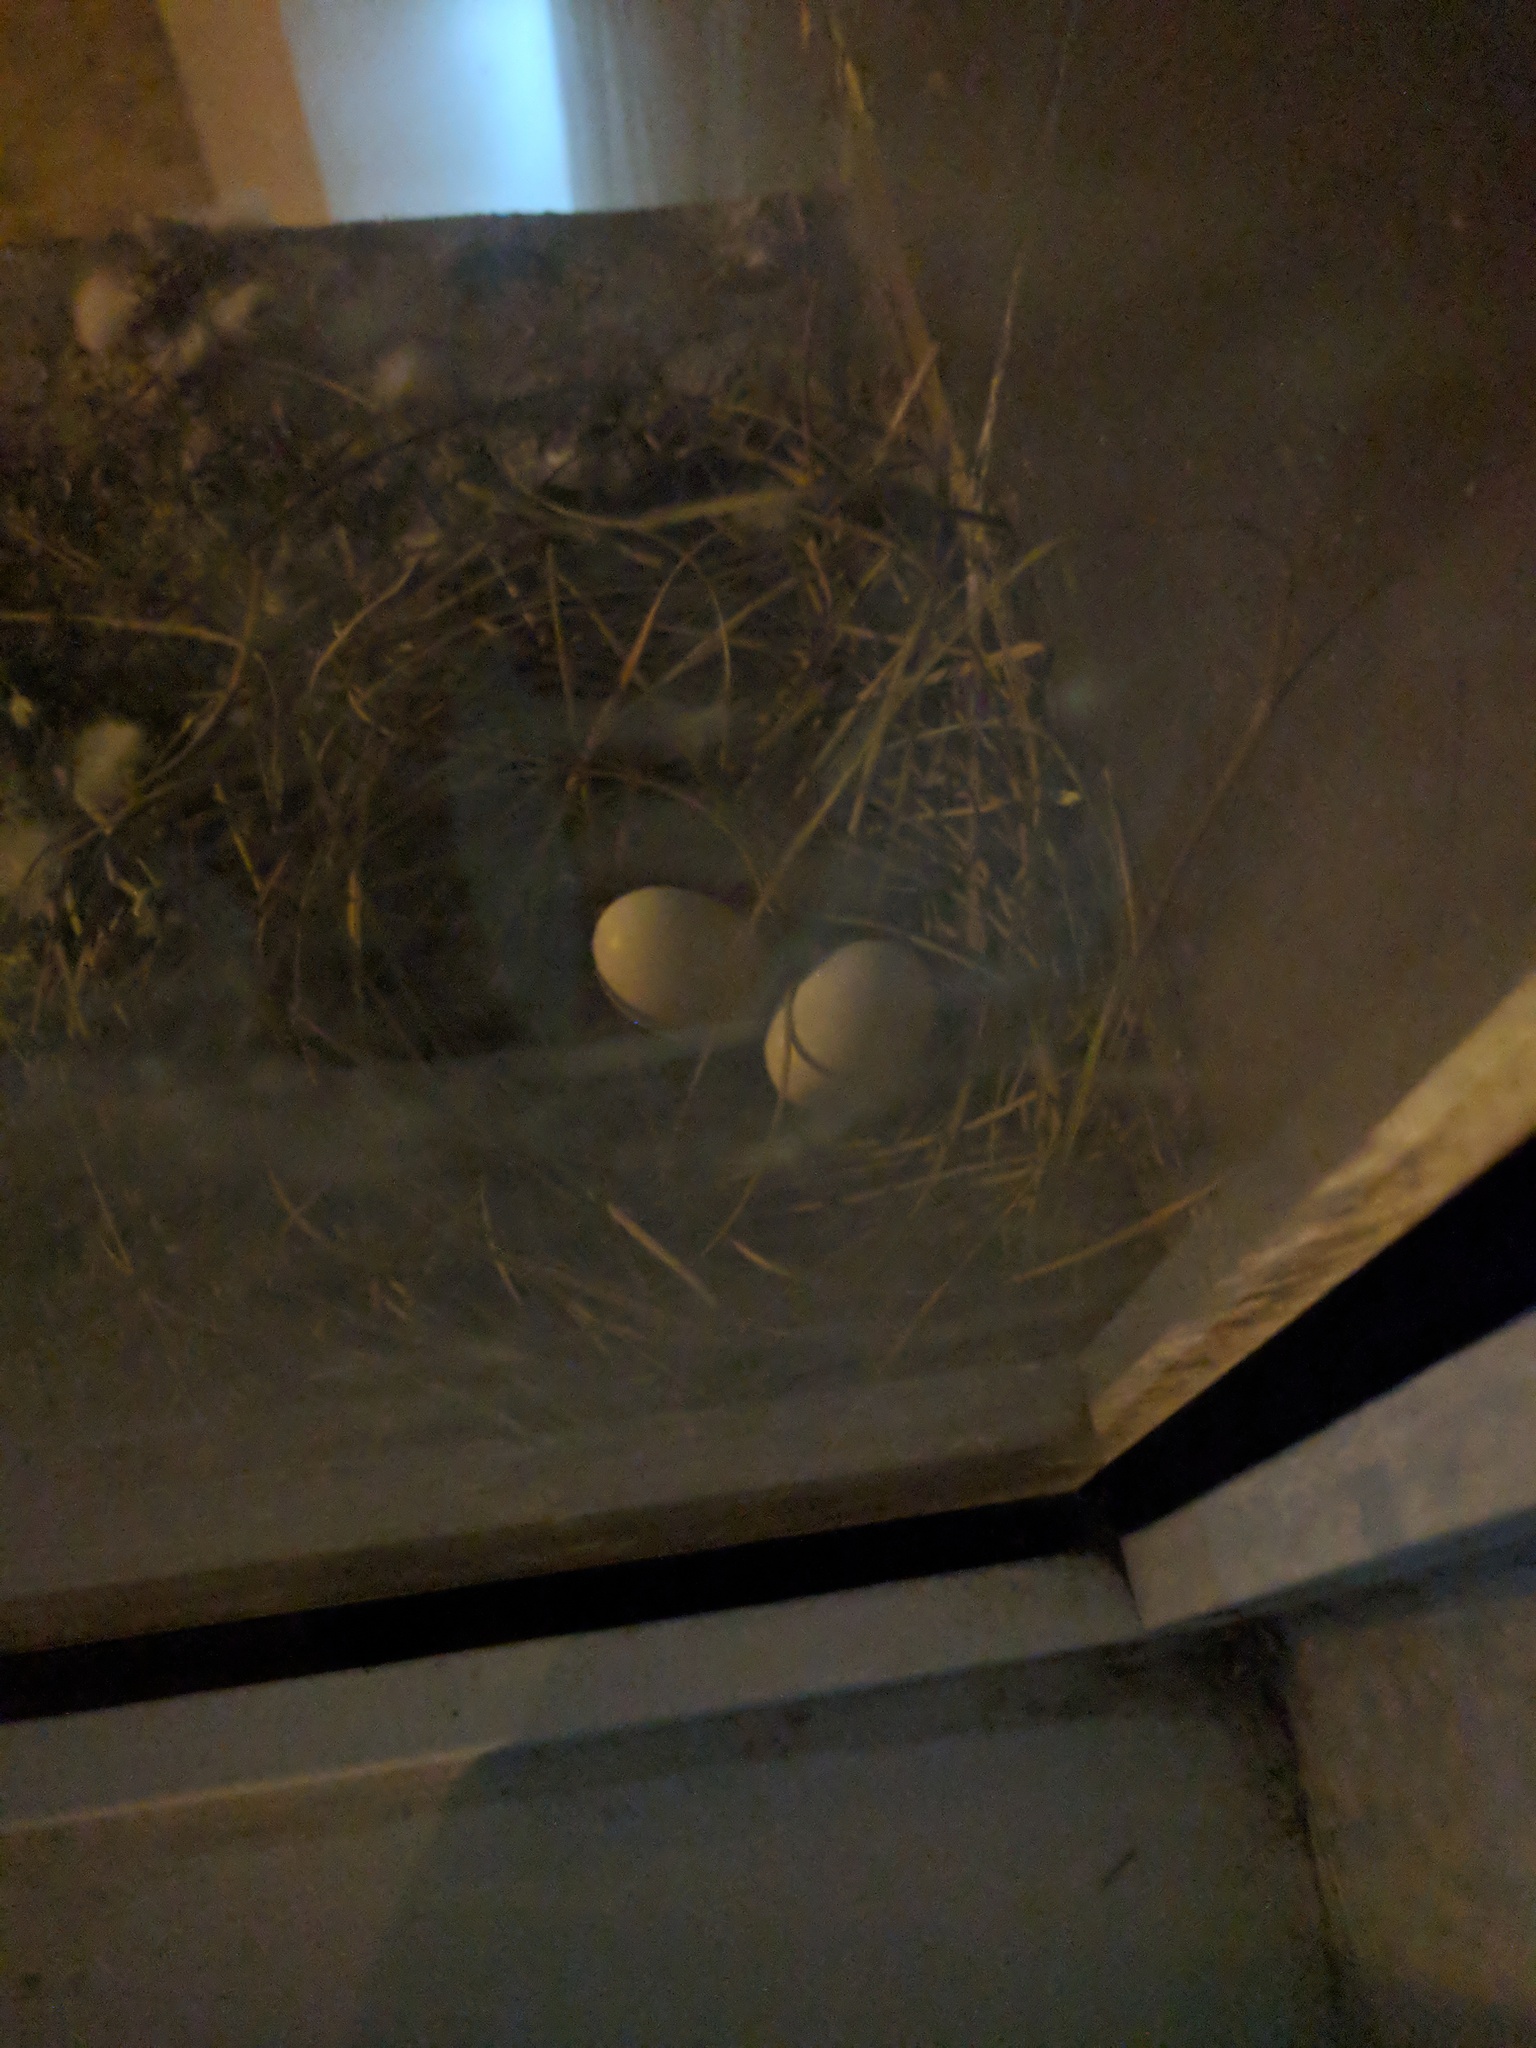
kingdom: Animalia
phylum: Chordata
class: Aves
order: Columbiformes
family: Columbidae
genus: Columba
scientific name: Columba livia
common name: Rock pigeon
